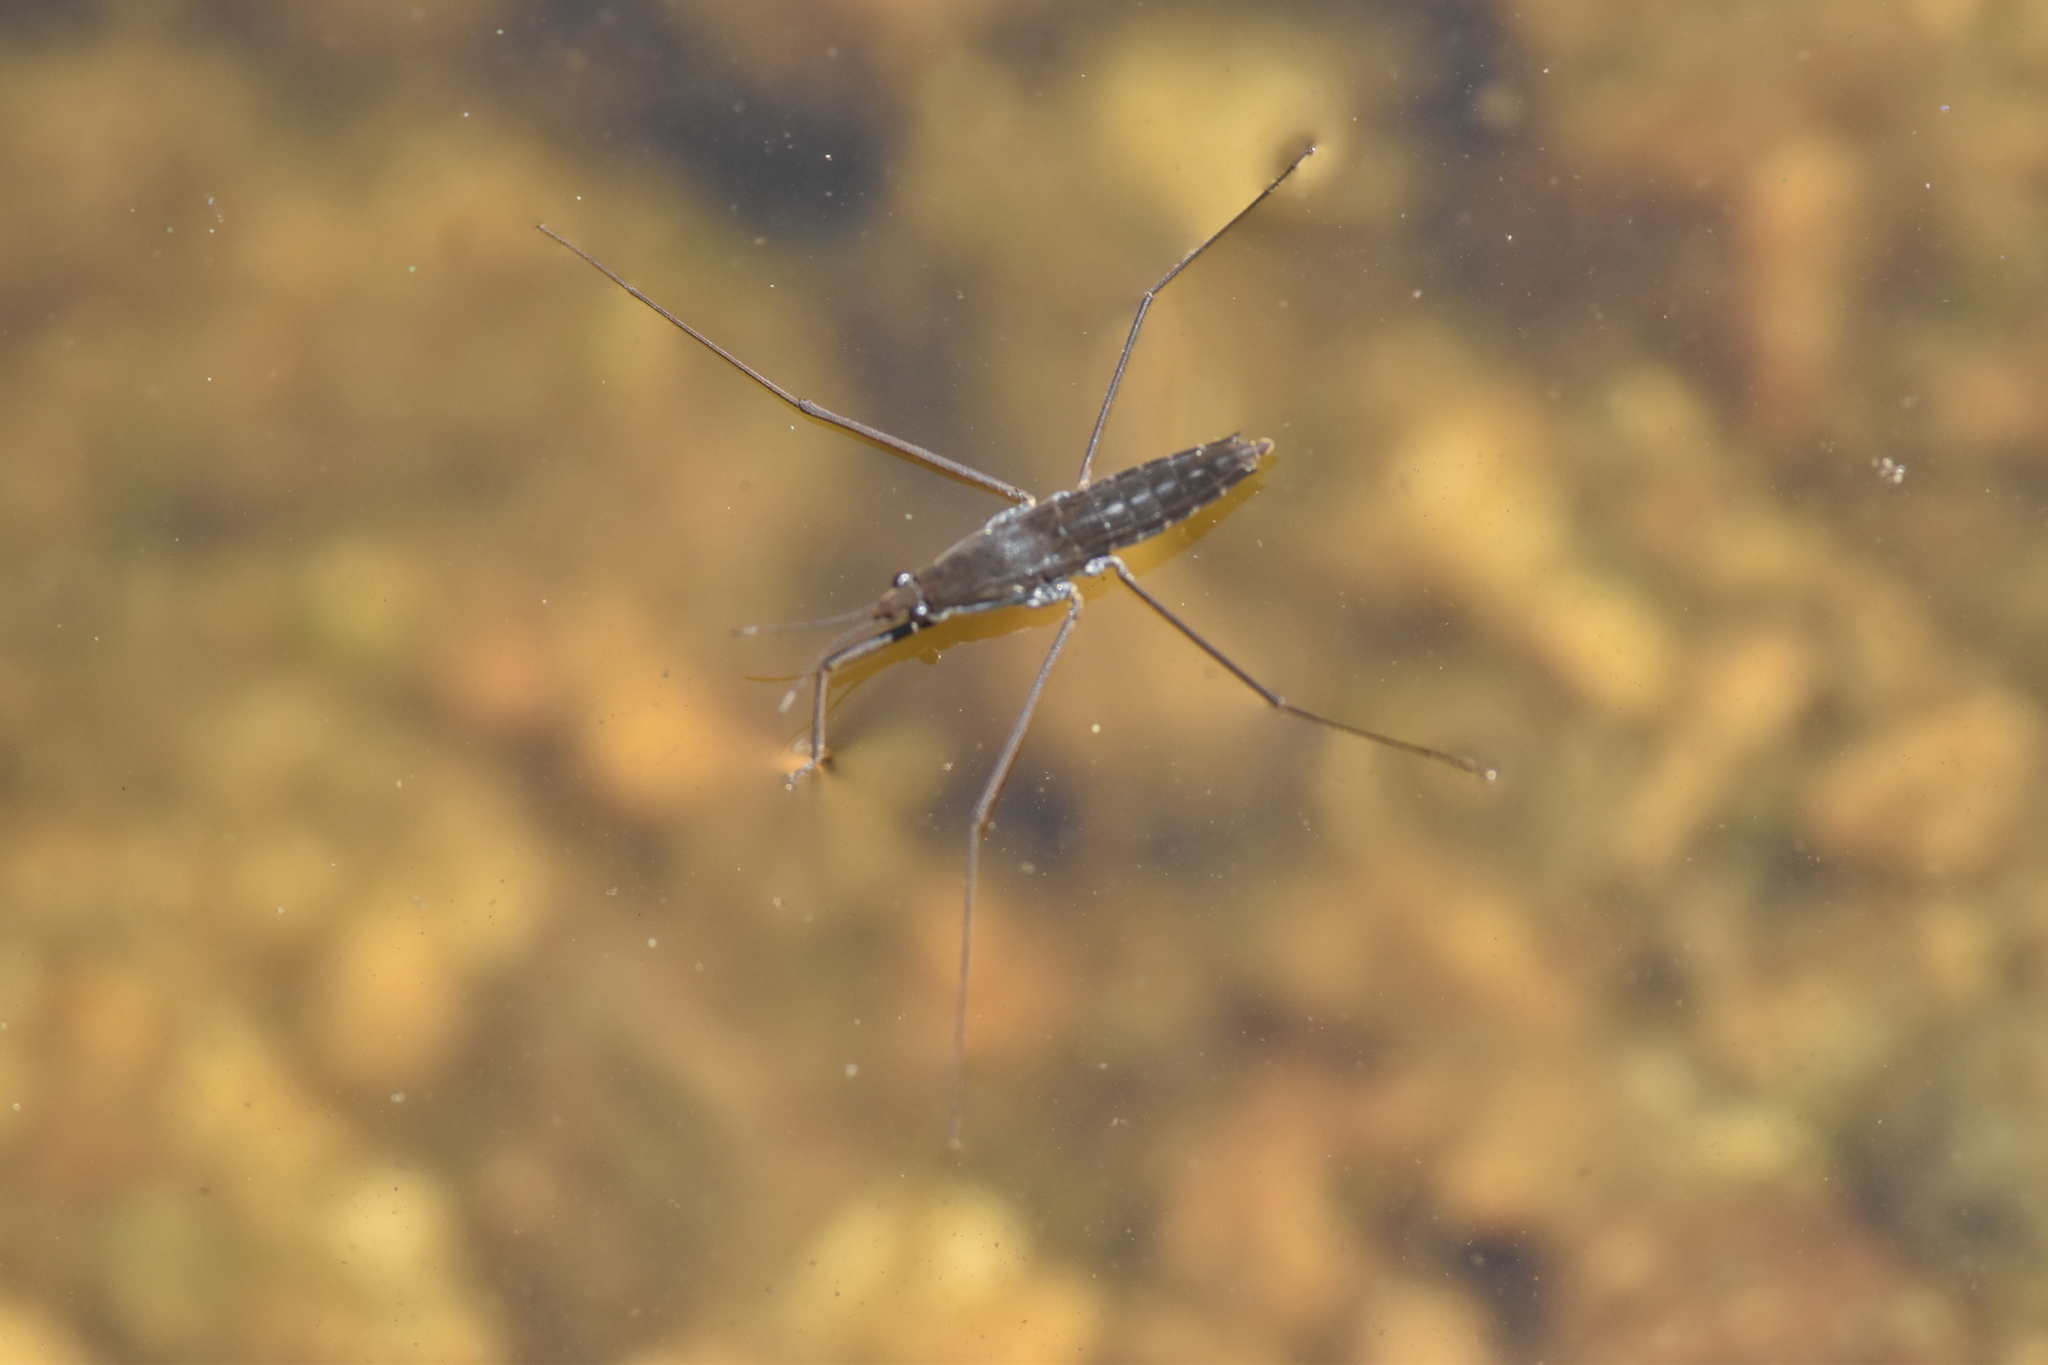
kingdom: Animalia
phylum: Arthropoda
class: Insecta
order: Hemiptera
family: Gerridae
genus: Aquarius
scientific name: Aquarius remigis
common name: Common water strider
